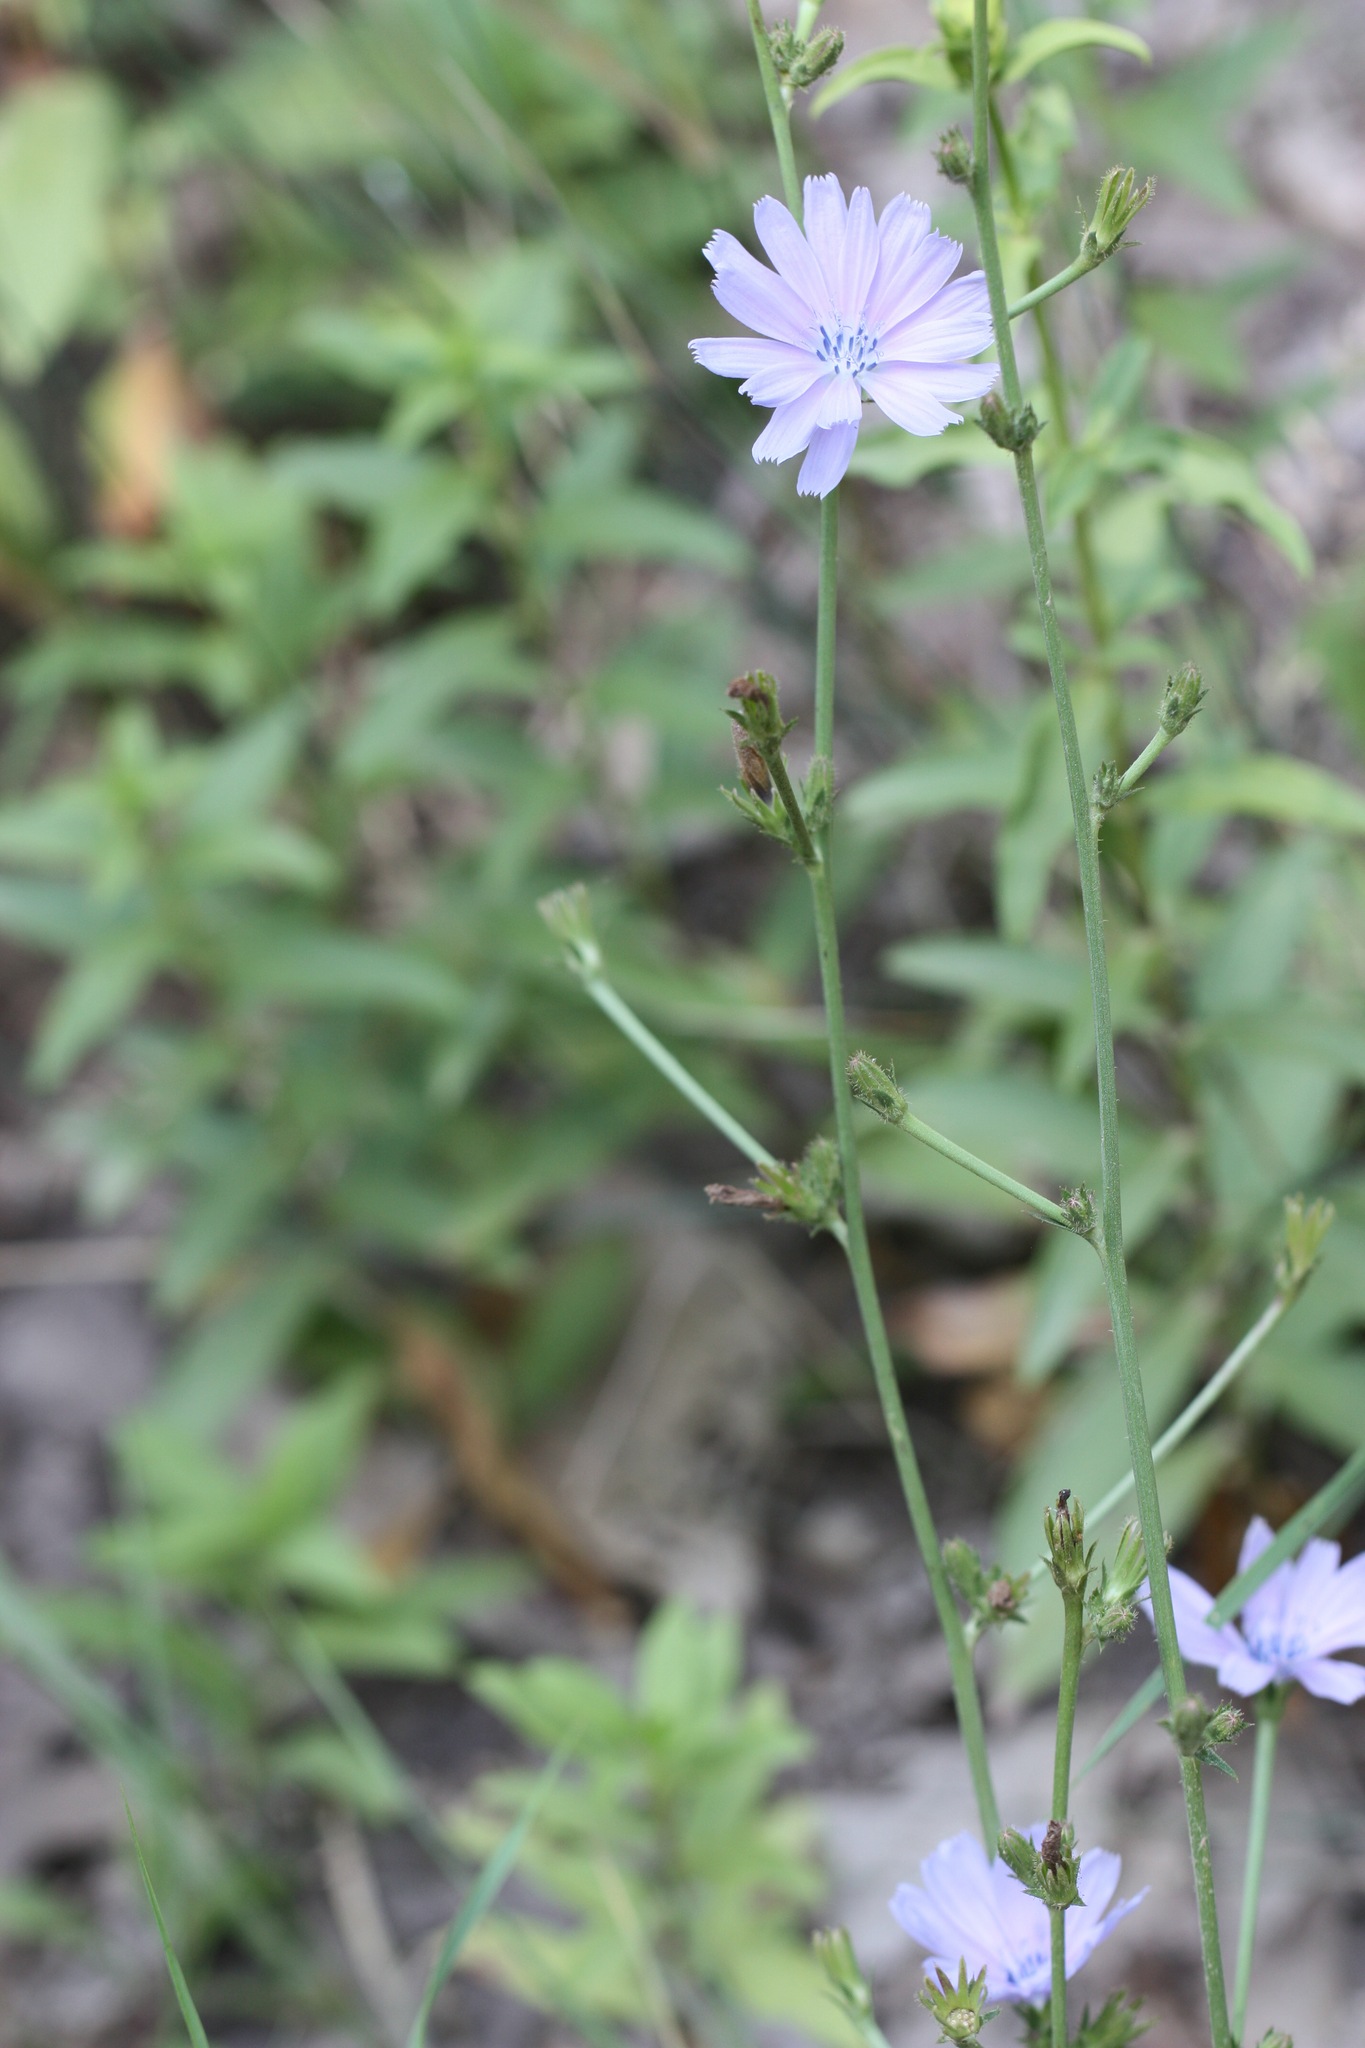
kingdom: Plantae
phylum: Tracheophyta
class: Magnoliopsida
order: Asterales
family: Asteraceae
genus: Cichorium
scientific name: Cichorium intybus
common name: Chicory
